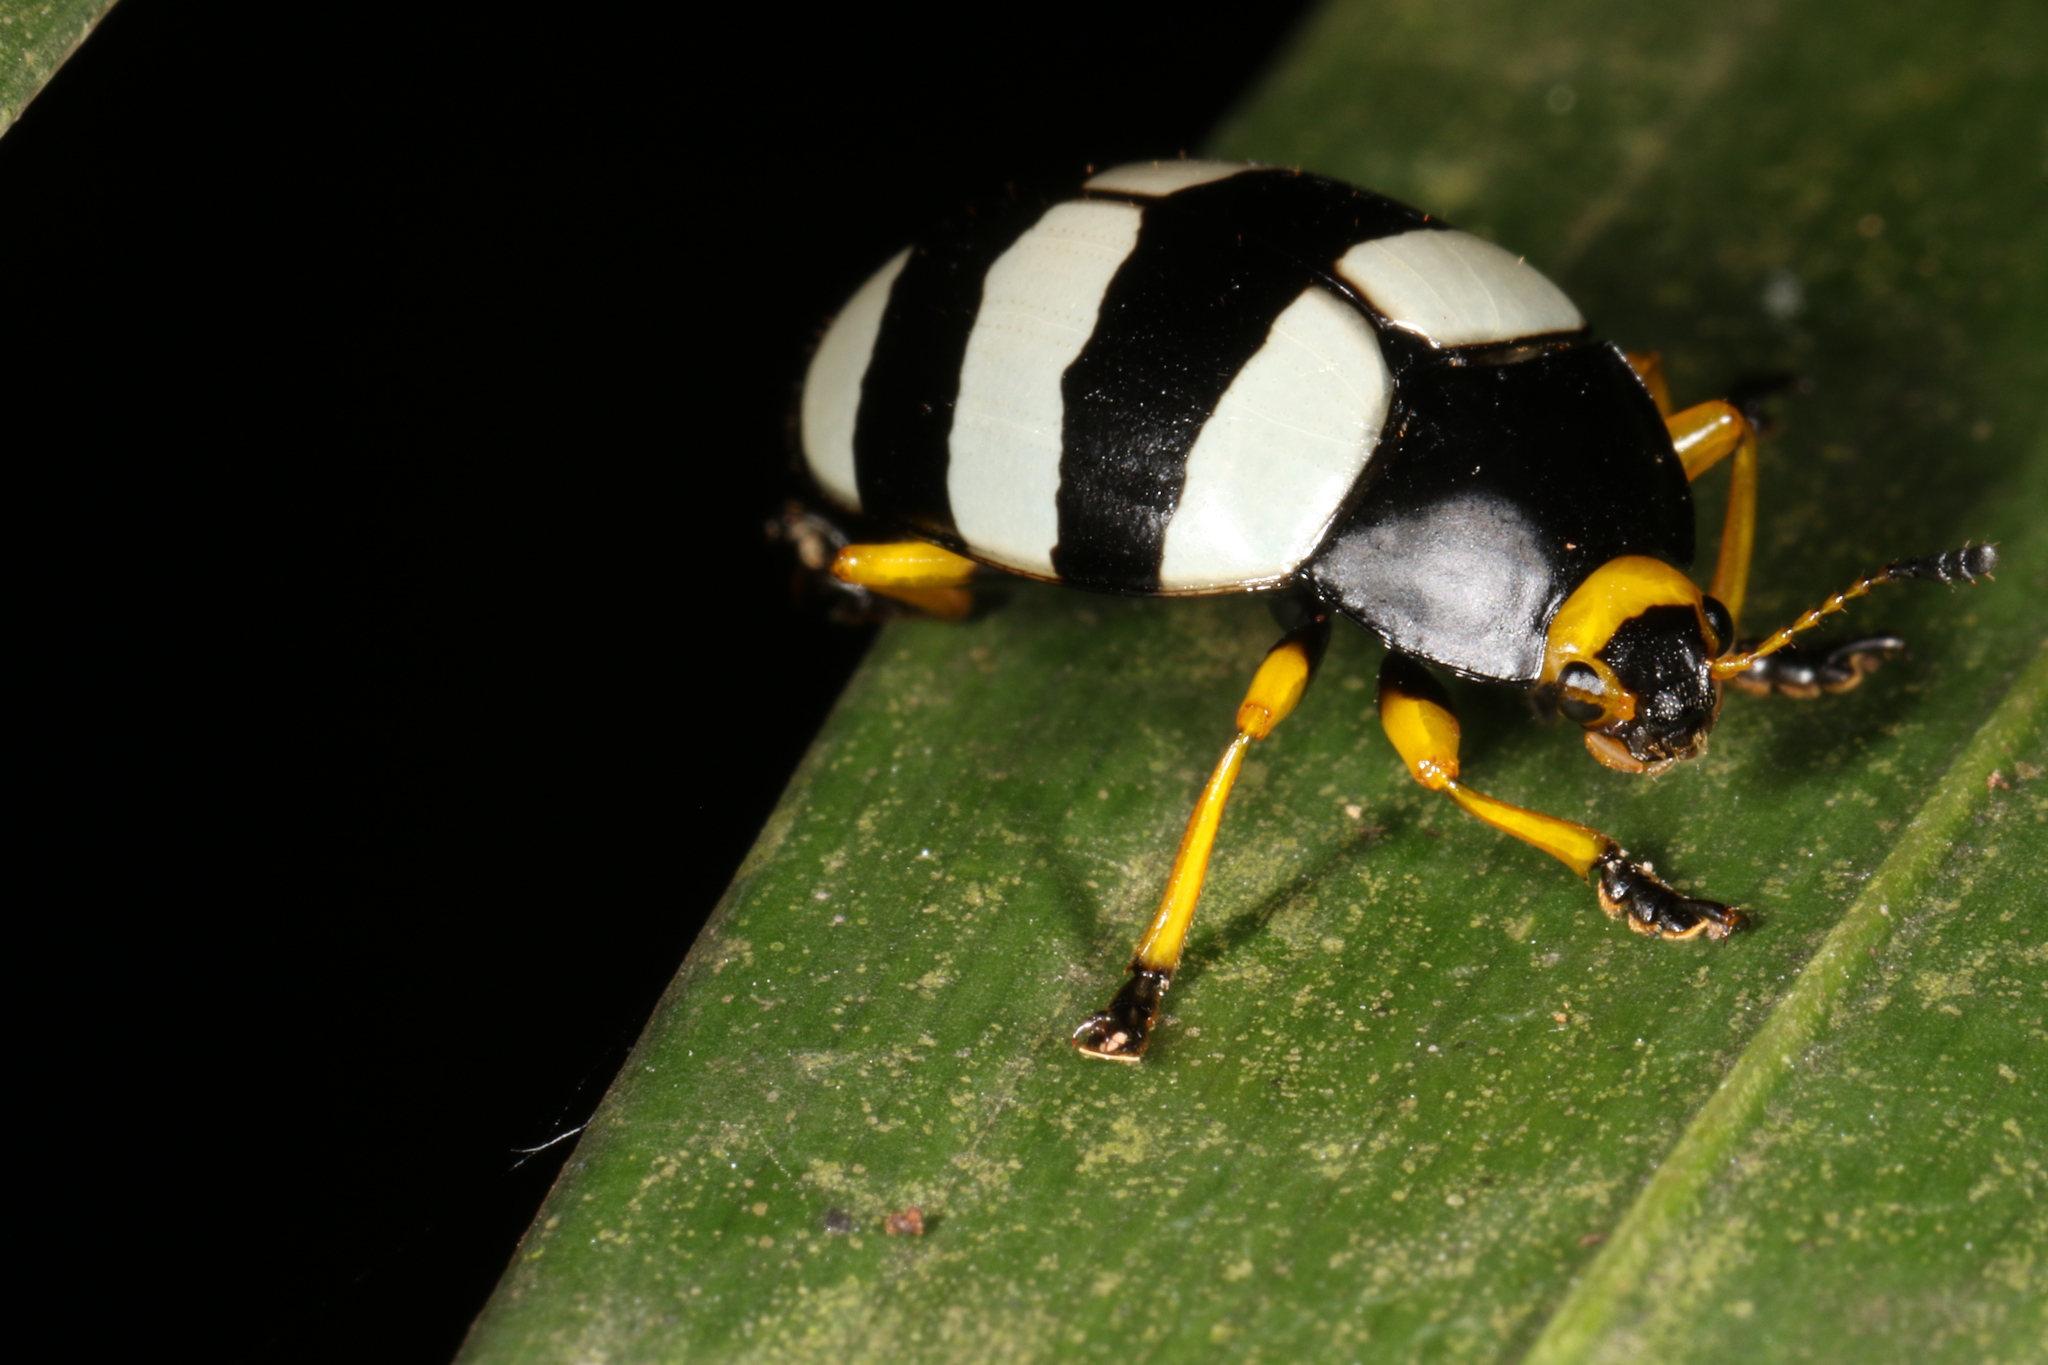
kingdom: Animalia
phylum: Arthropoda
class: Insecta
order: Coleoptera
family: Erotylidae
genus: Iphiclus
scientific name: Iphiclus
